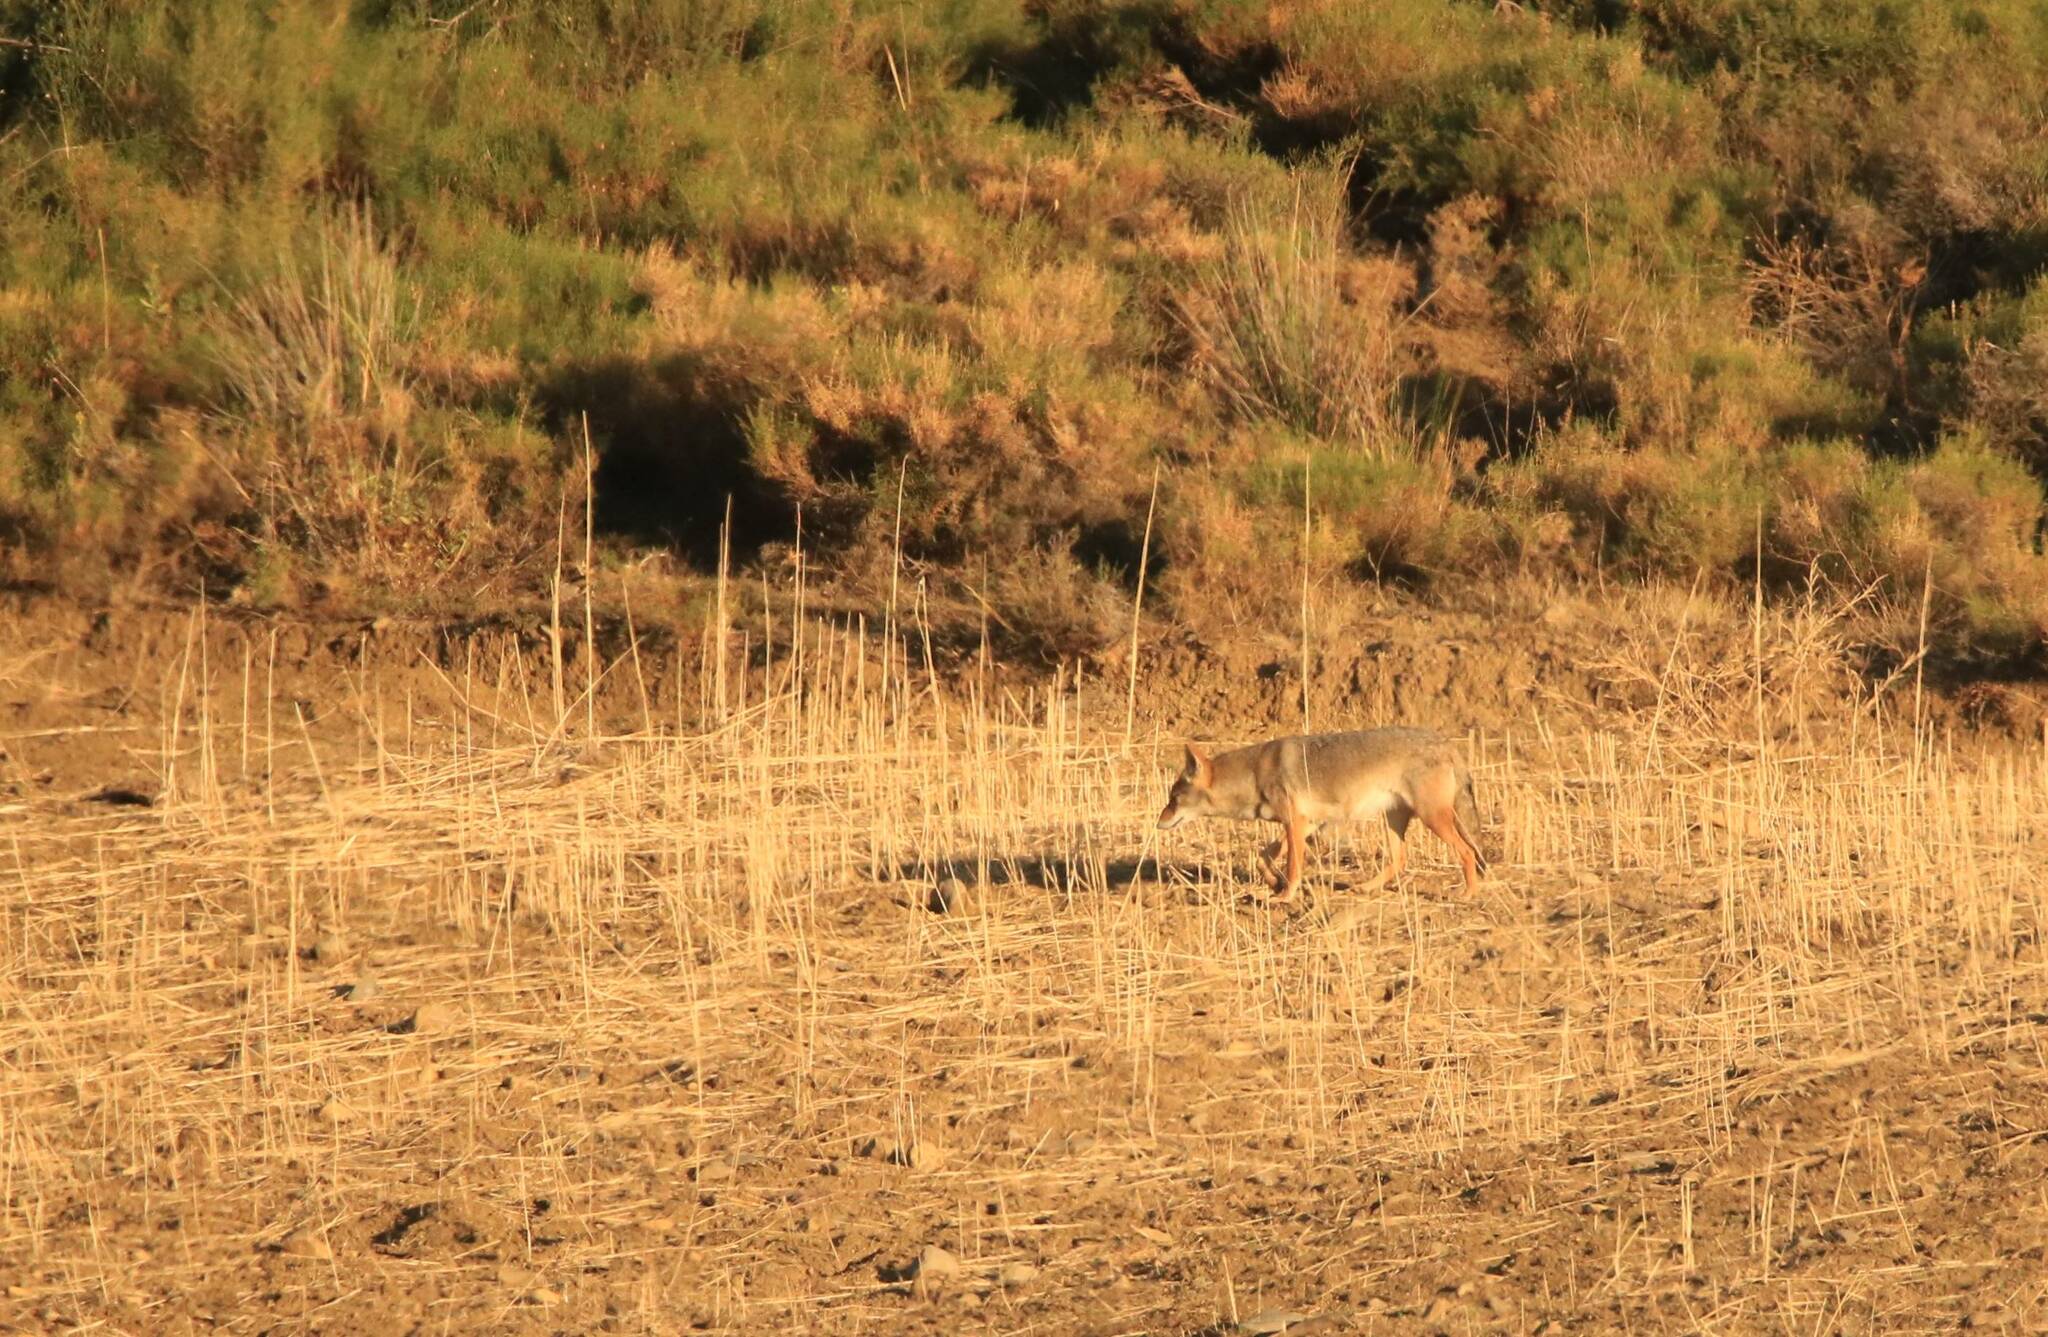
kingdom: Animalia
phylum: Chordata
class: Mammalia
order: Carnivora
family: Canidae
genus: Canis
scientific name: Canis lupaster
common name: African golden wolf
